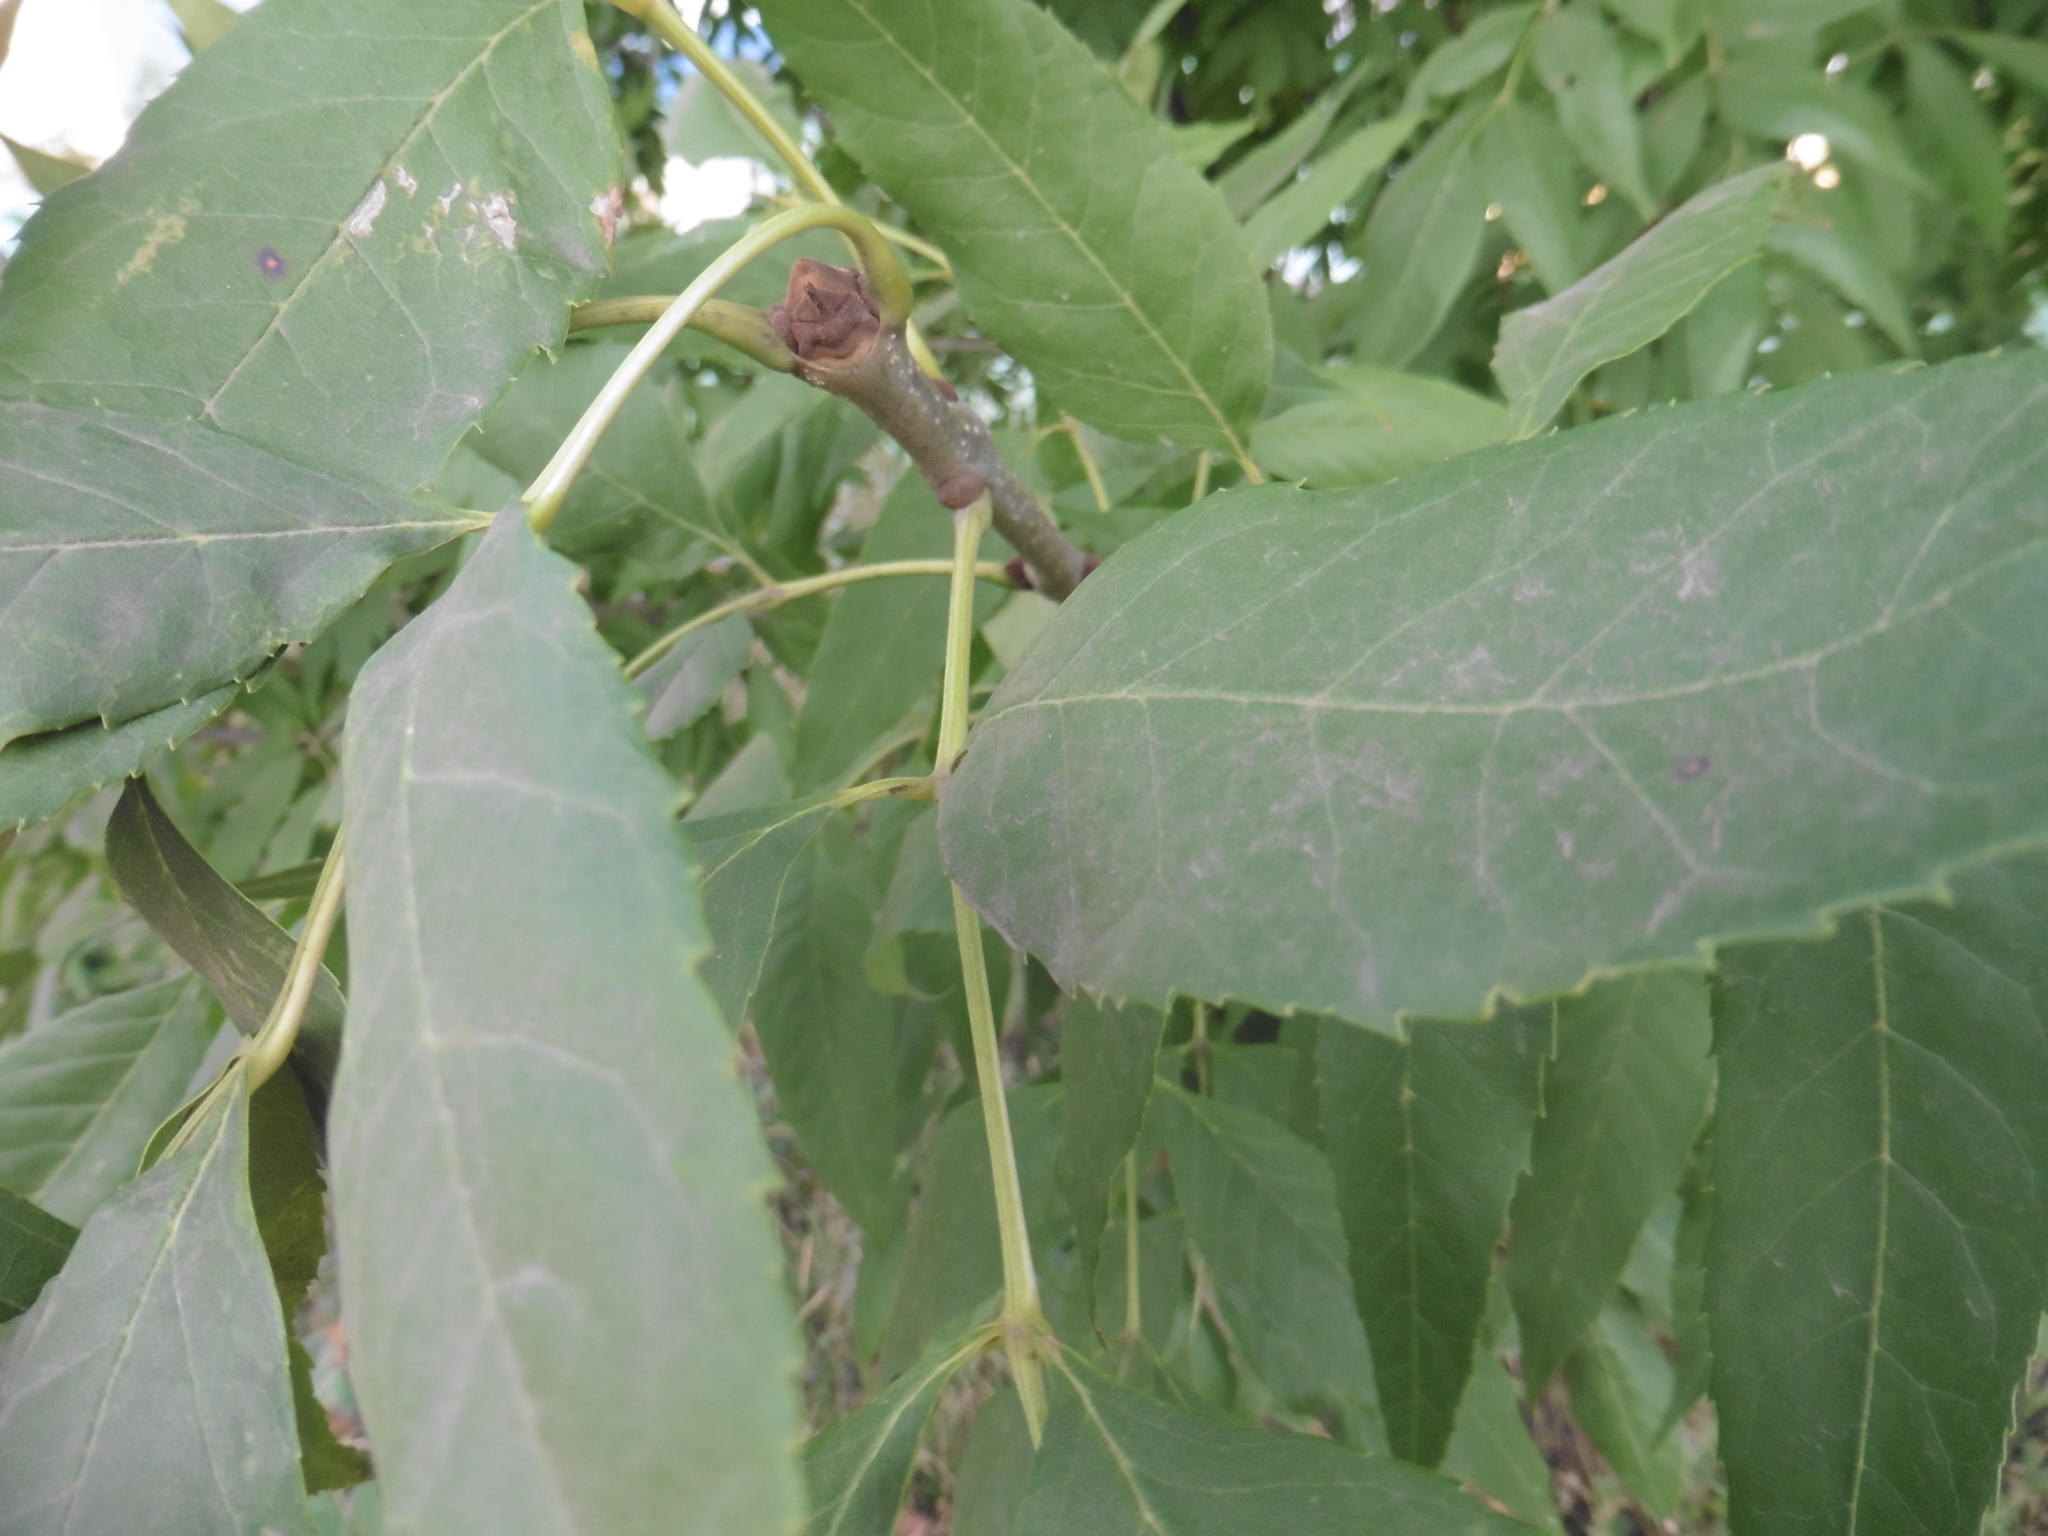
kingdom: Plantae
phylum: Tracheophyta
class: Magnoliopsida
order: Lamiales
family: Oleaceae
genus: Fraxinus
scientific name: Fraxinus pennsylvanica
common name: Green ash
